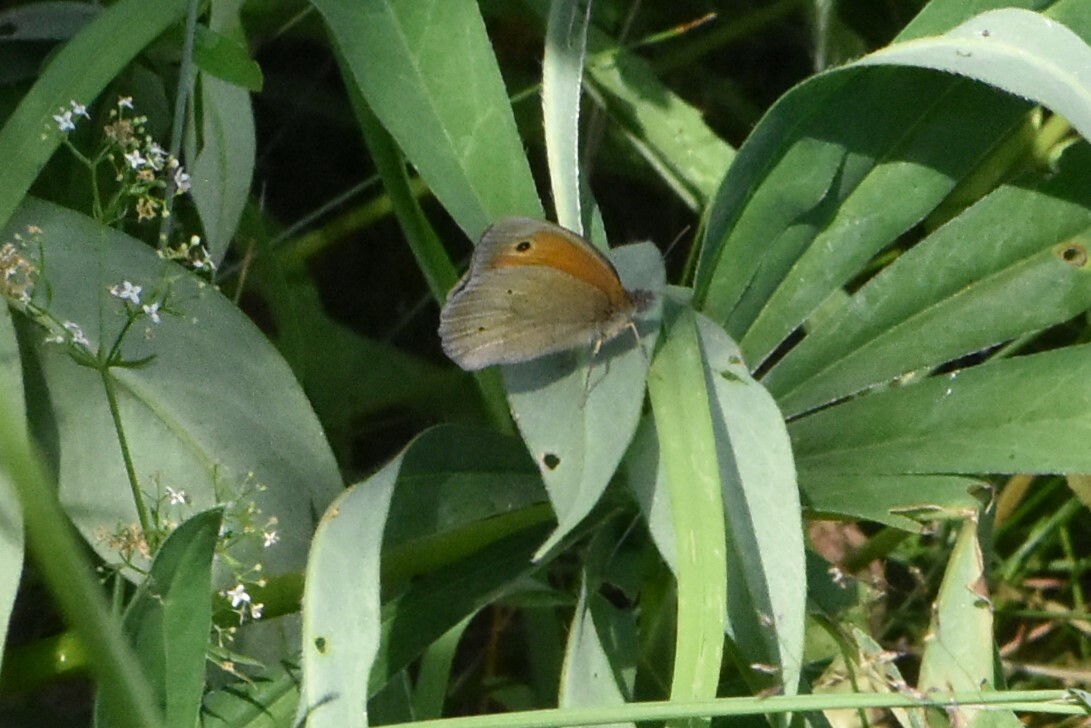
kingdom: Animalia
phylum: Arthropoda
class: Insecta
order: Lepidoptera
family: Nymphalidae
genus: Maniola
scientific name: Maniola jurtina
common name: Meadow brown
